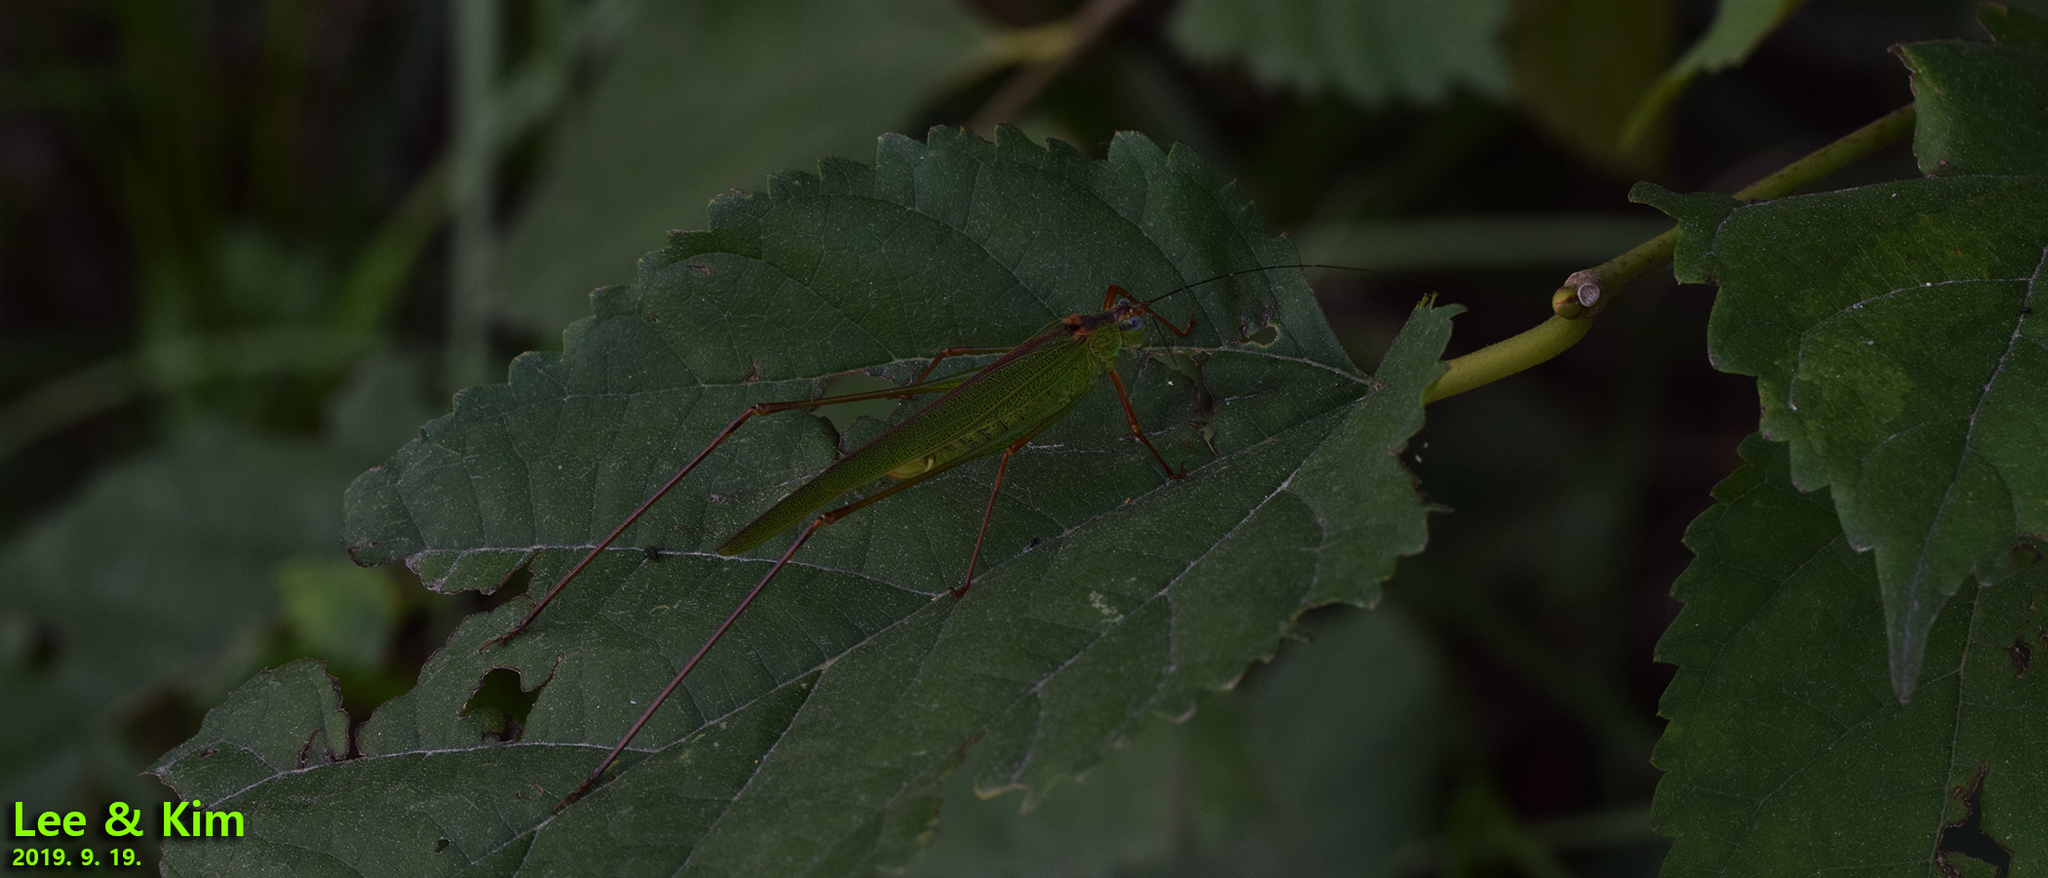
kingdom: Animalia
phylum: Arthropoda
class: Insecta
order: Orthoptera
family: Tettigoniidae
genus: Phaneroptera
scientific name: Phaneroptera nigroantennata
